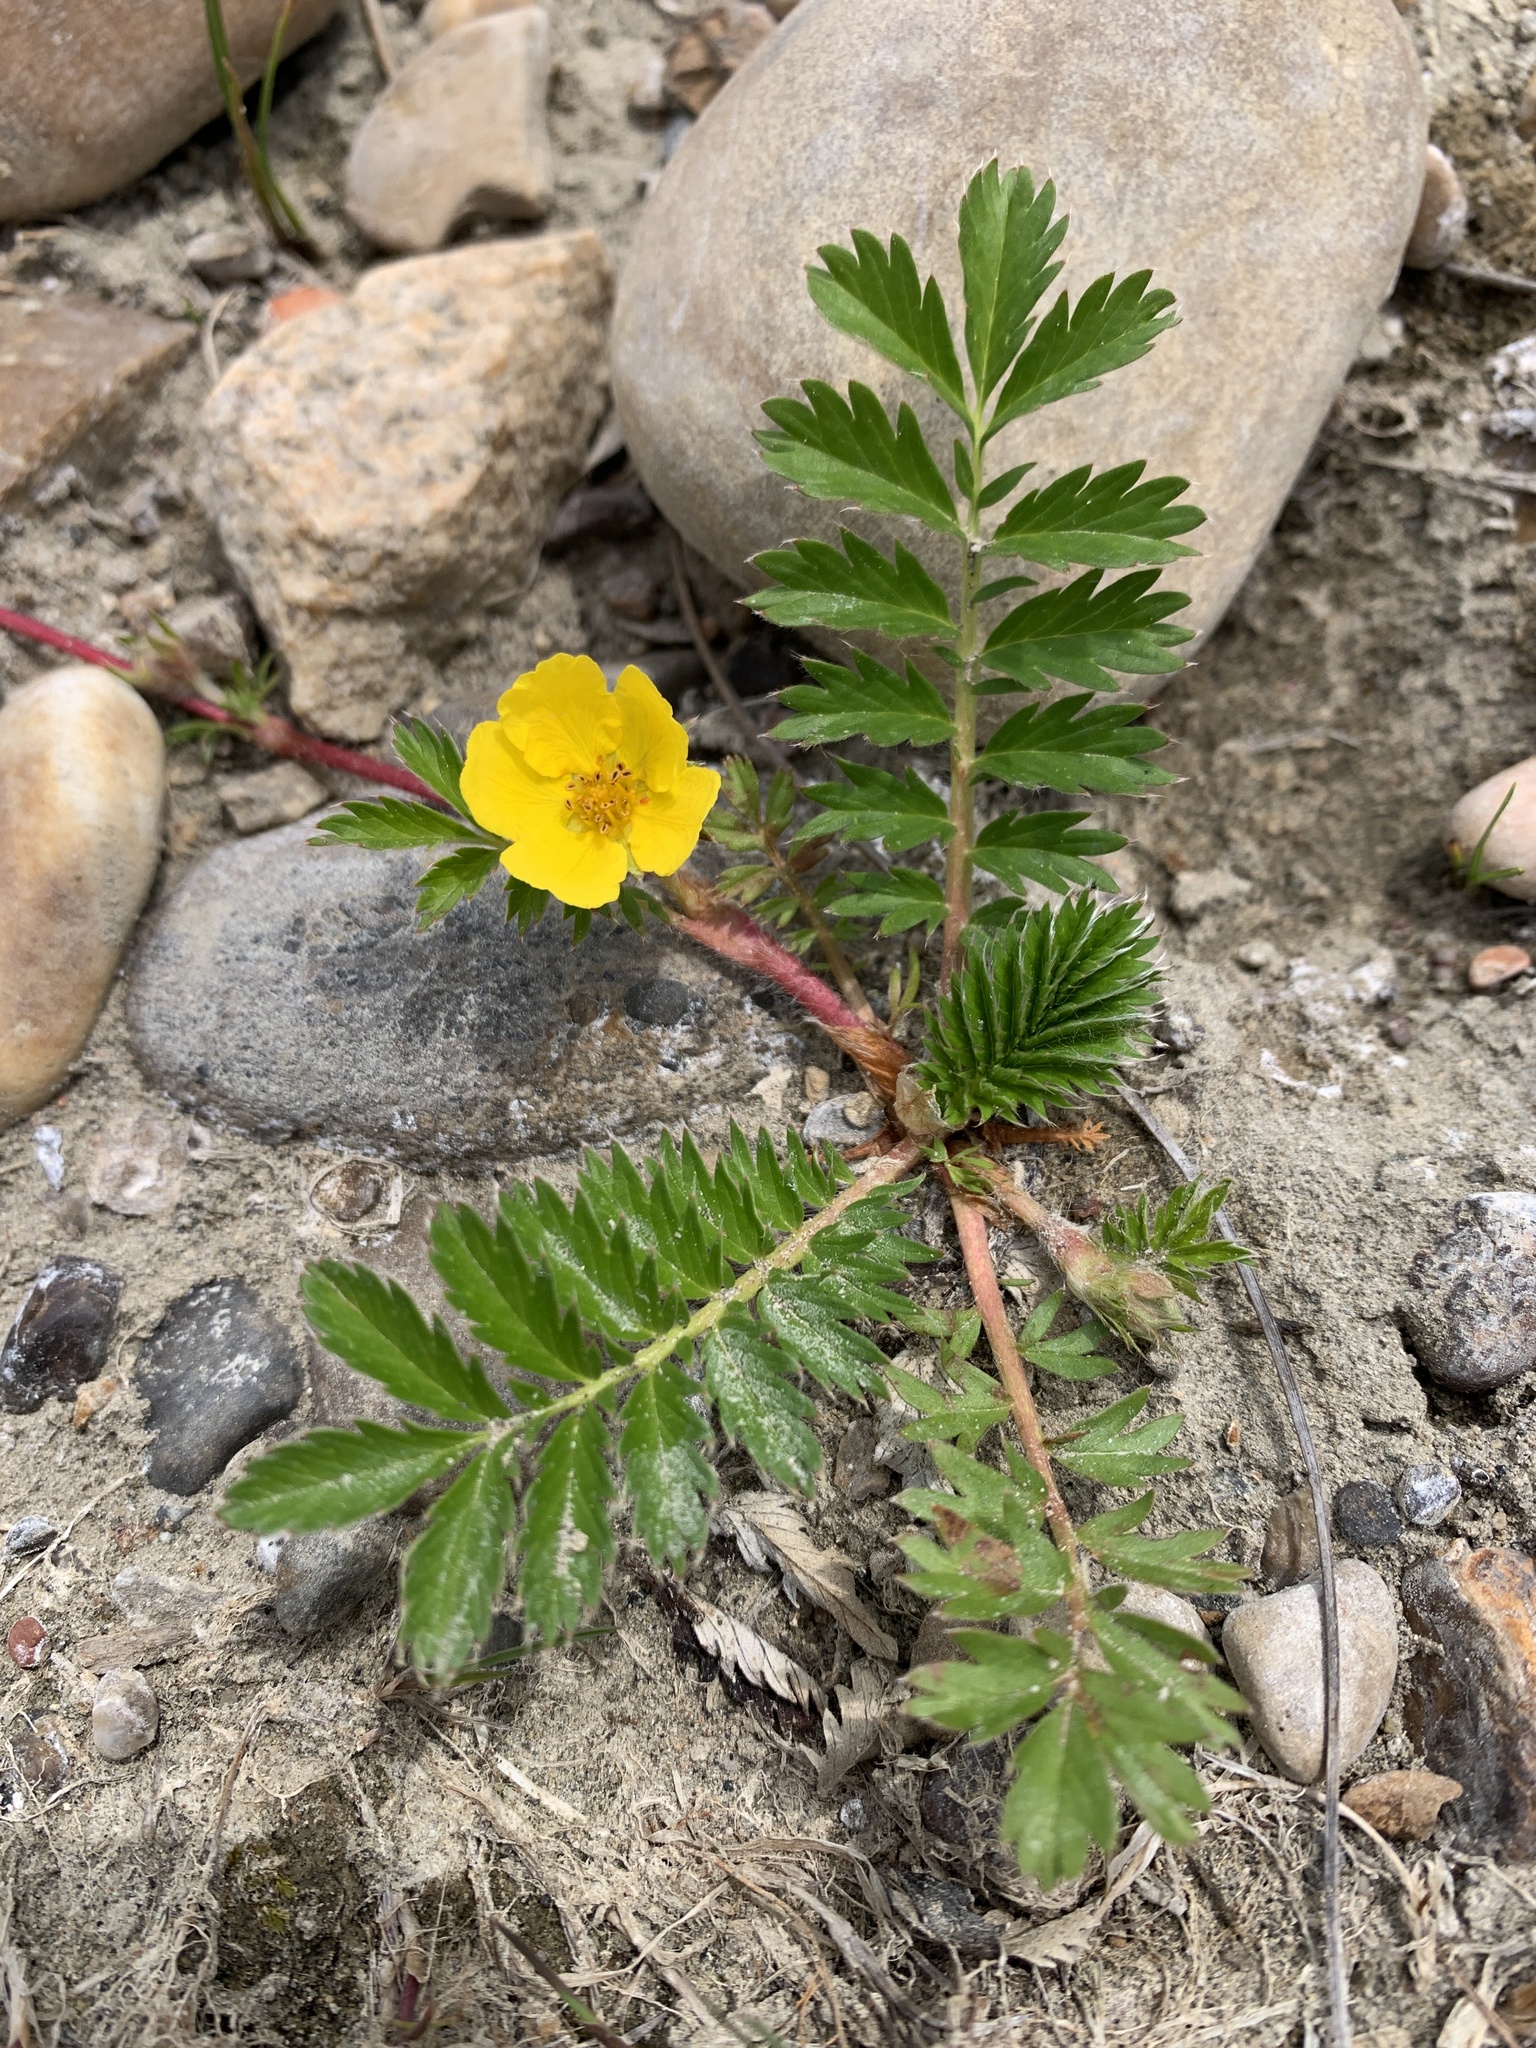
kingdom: Plantae
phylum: Tracheophyta
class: Magnoliopsida
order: Rosales
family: Rosaceae
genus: Argentina
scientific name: Argentina anserina
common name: Common silverweed
